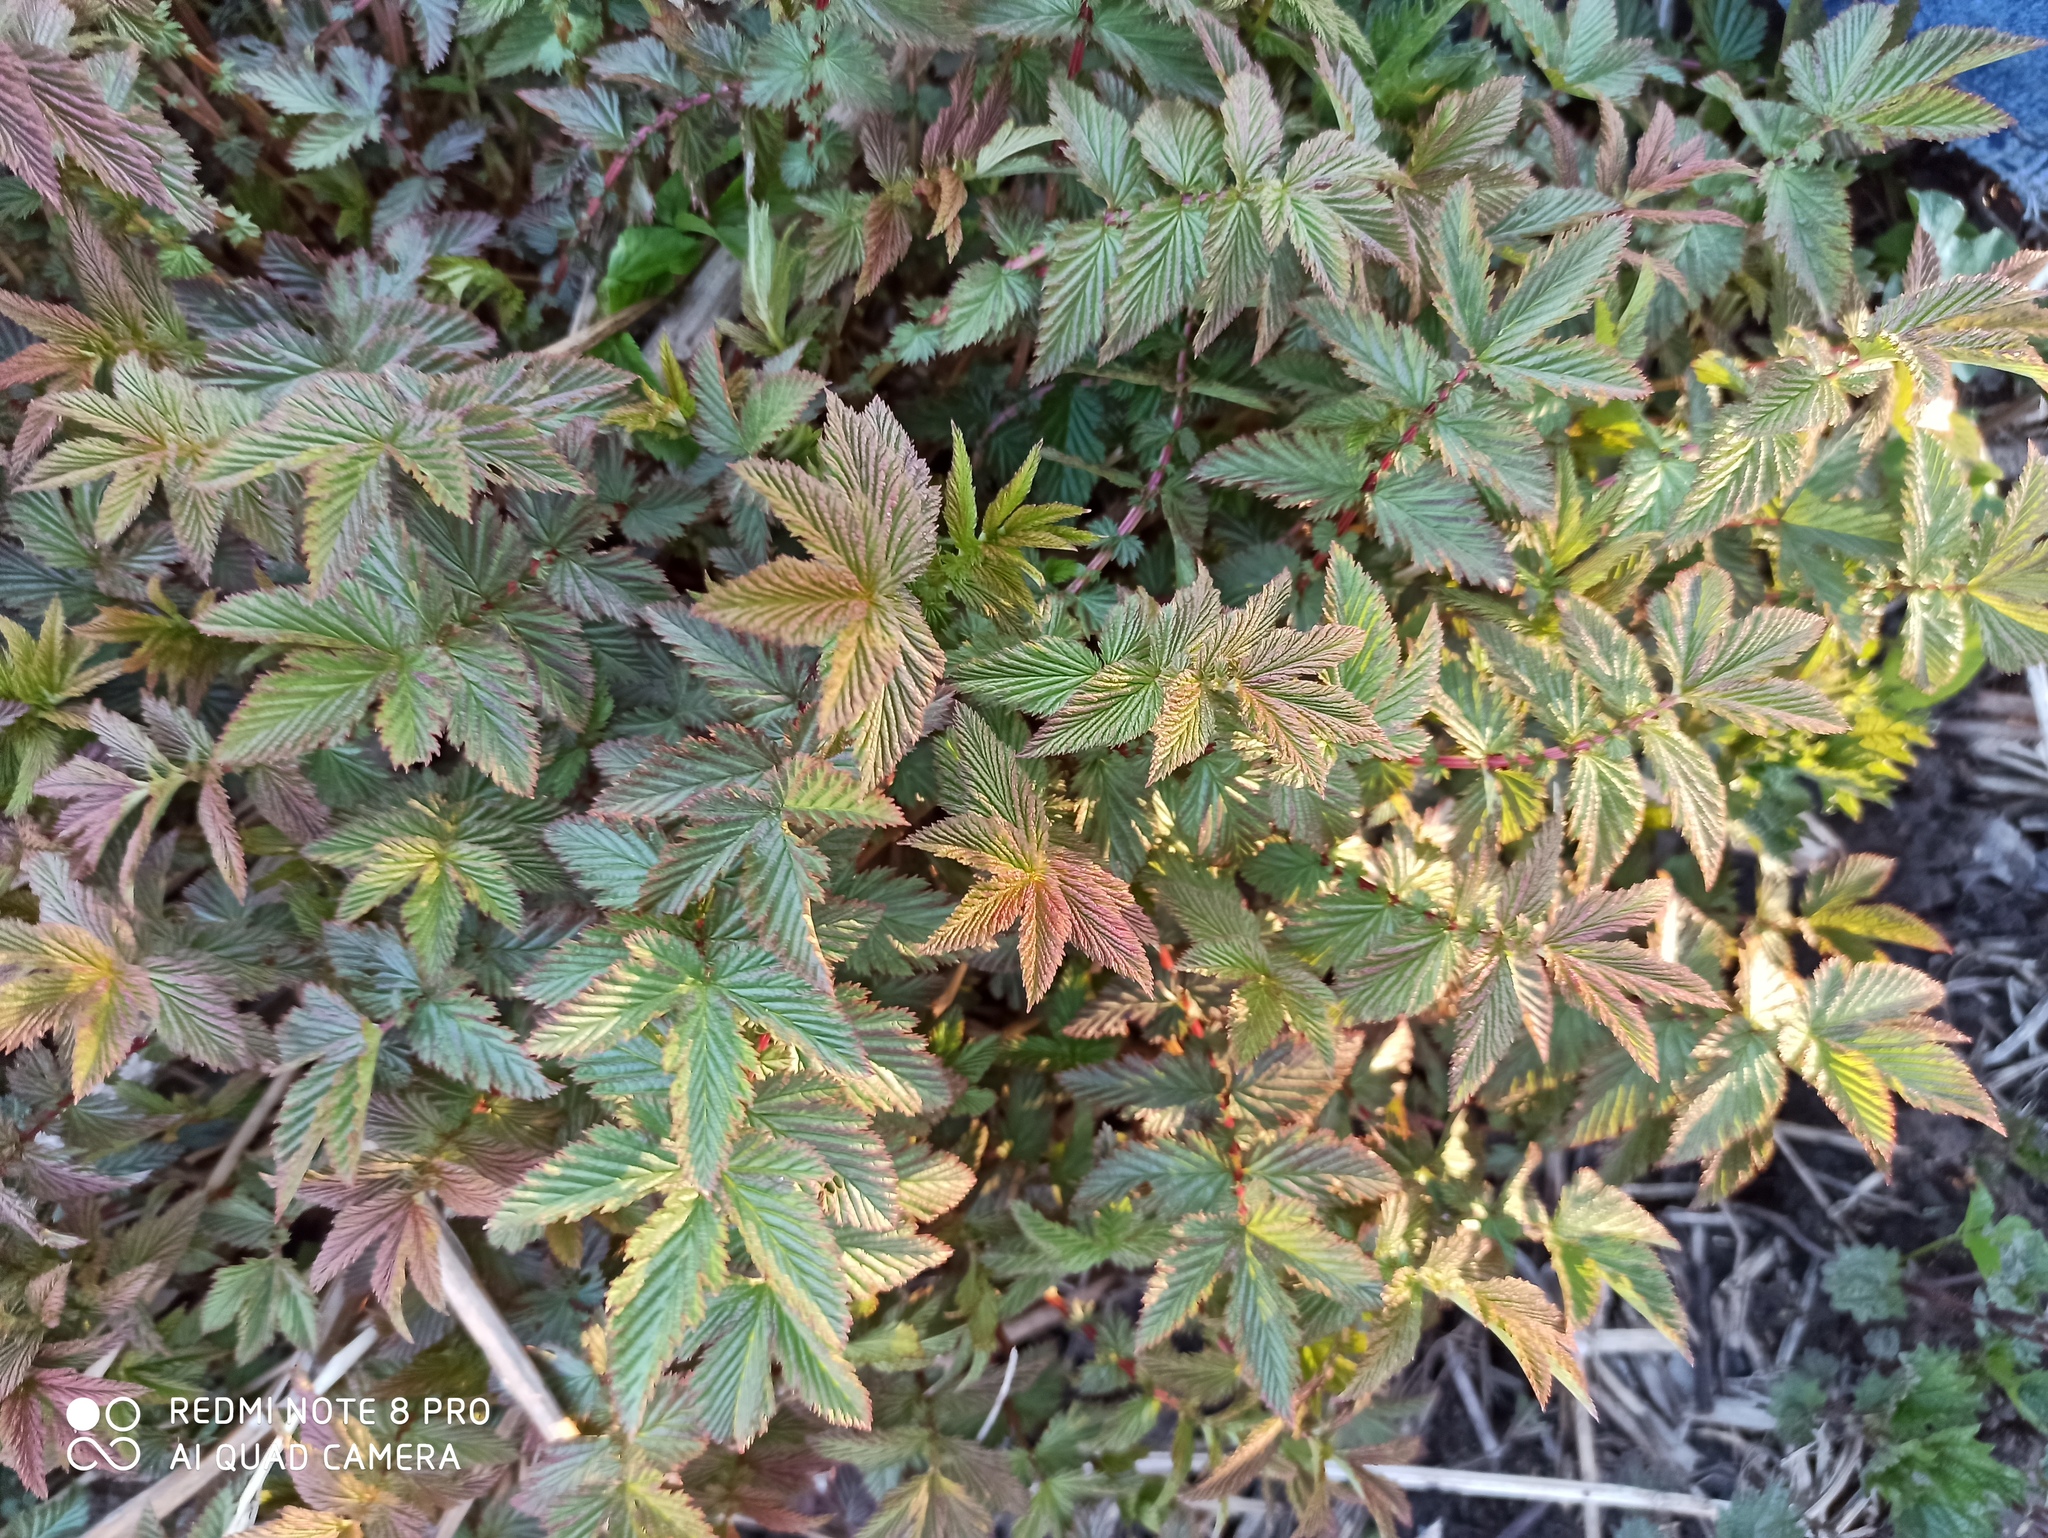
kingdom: Plantae
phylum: Tracheophyta
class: Magnoliopsida
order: Rosales
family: Rosaceae
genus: Filipendula
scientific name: Filipendula ulmaria
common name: Meadowsweet
